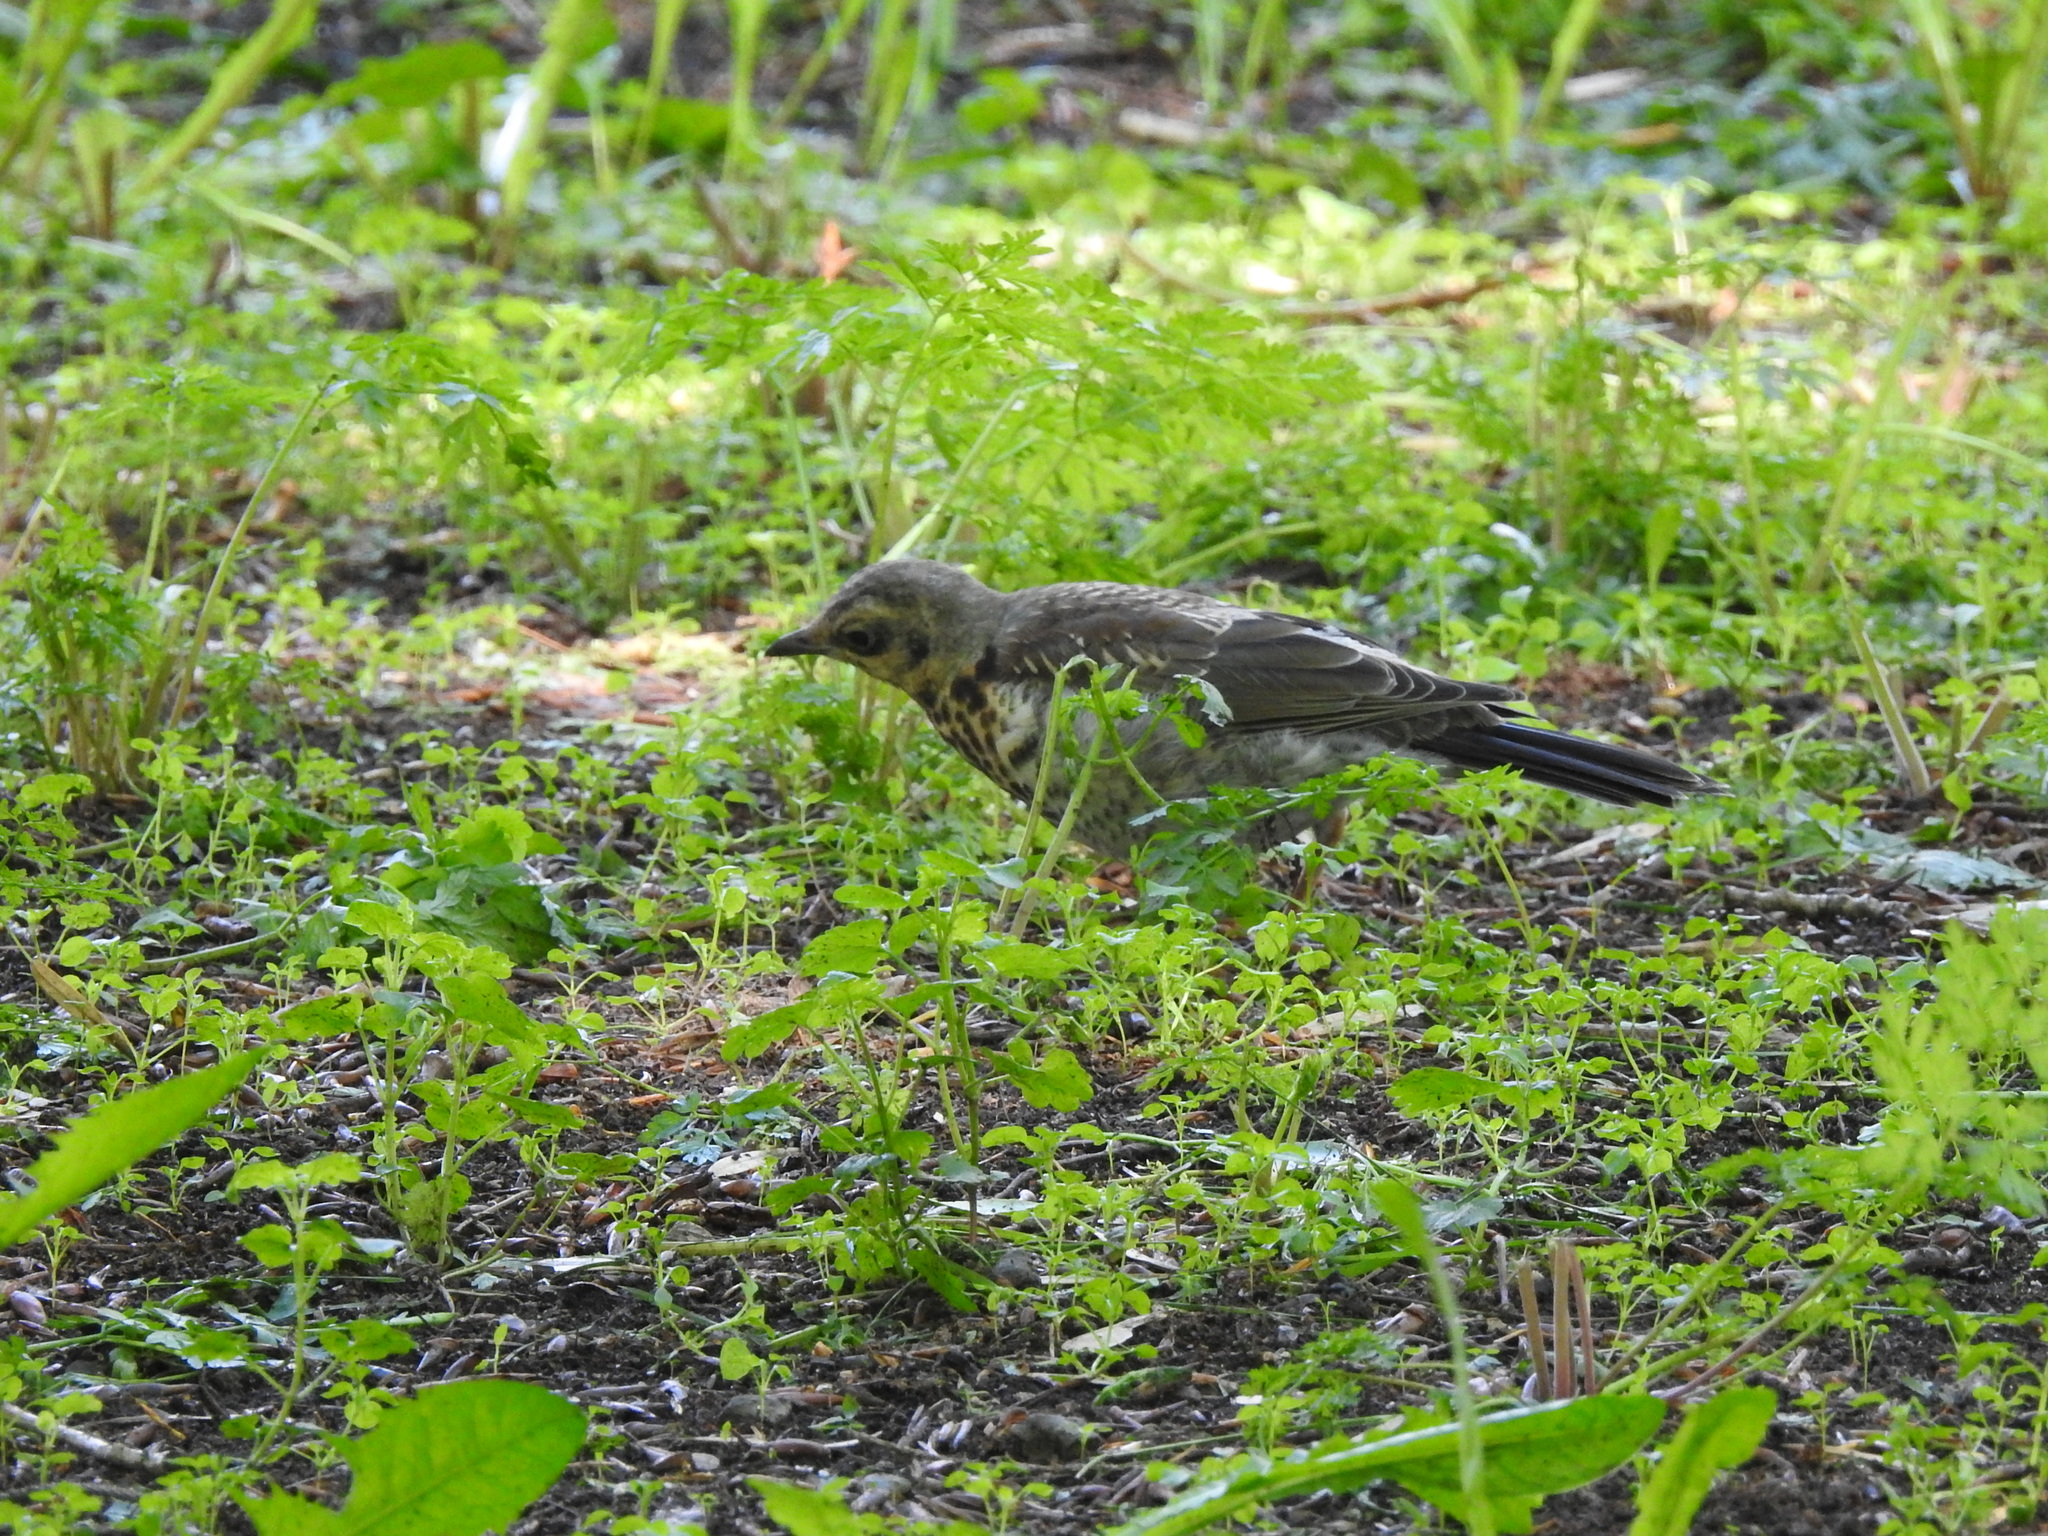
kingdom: Animalia
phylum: Chordata
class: Aves
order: Passeriformes
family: Turdidae
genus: Turdus
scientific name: Turdus pilaris
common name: Fieldfare
